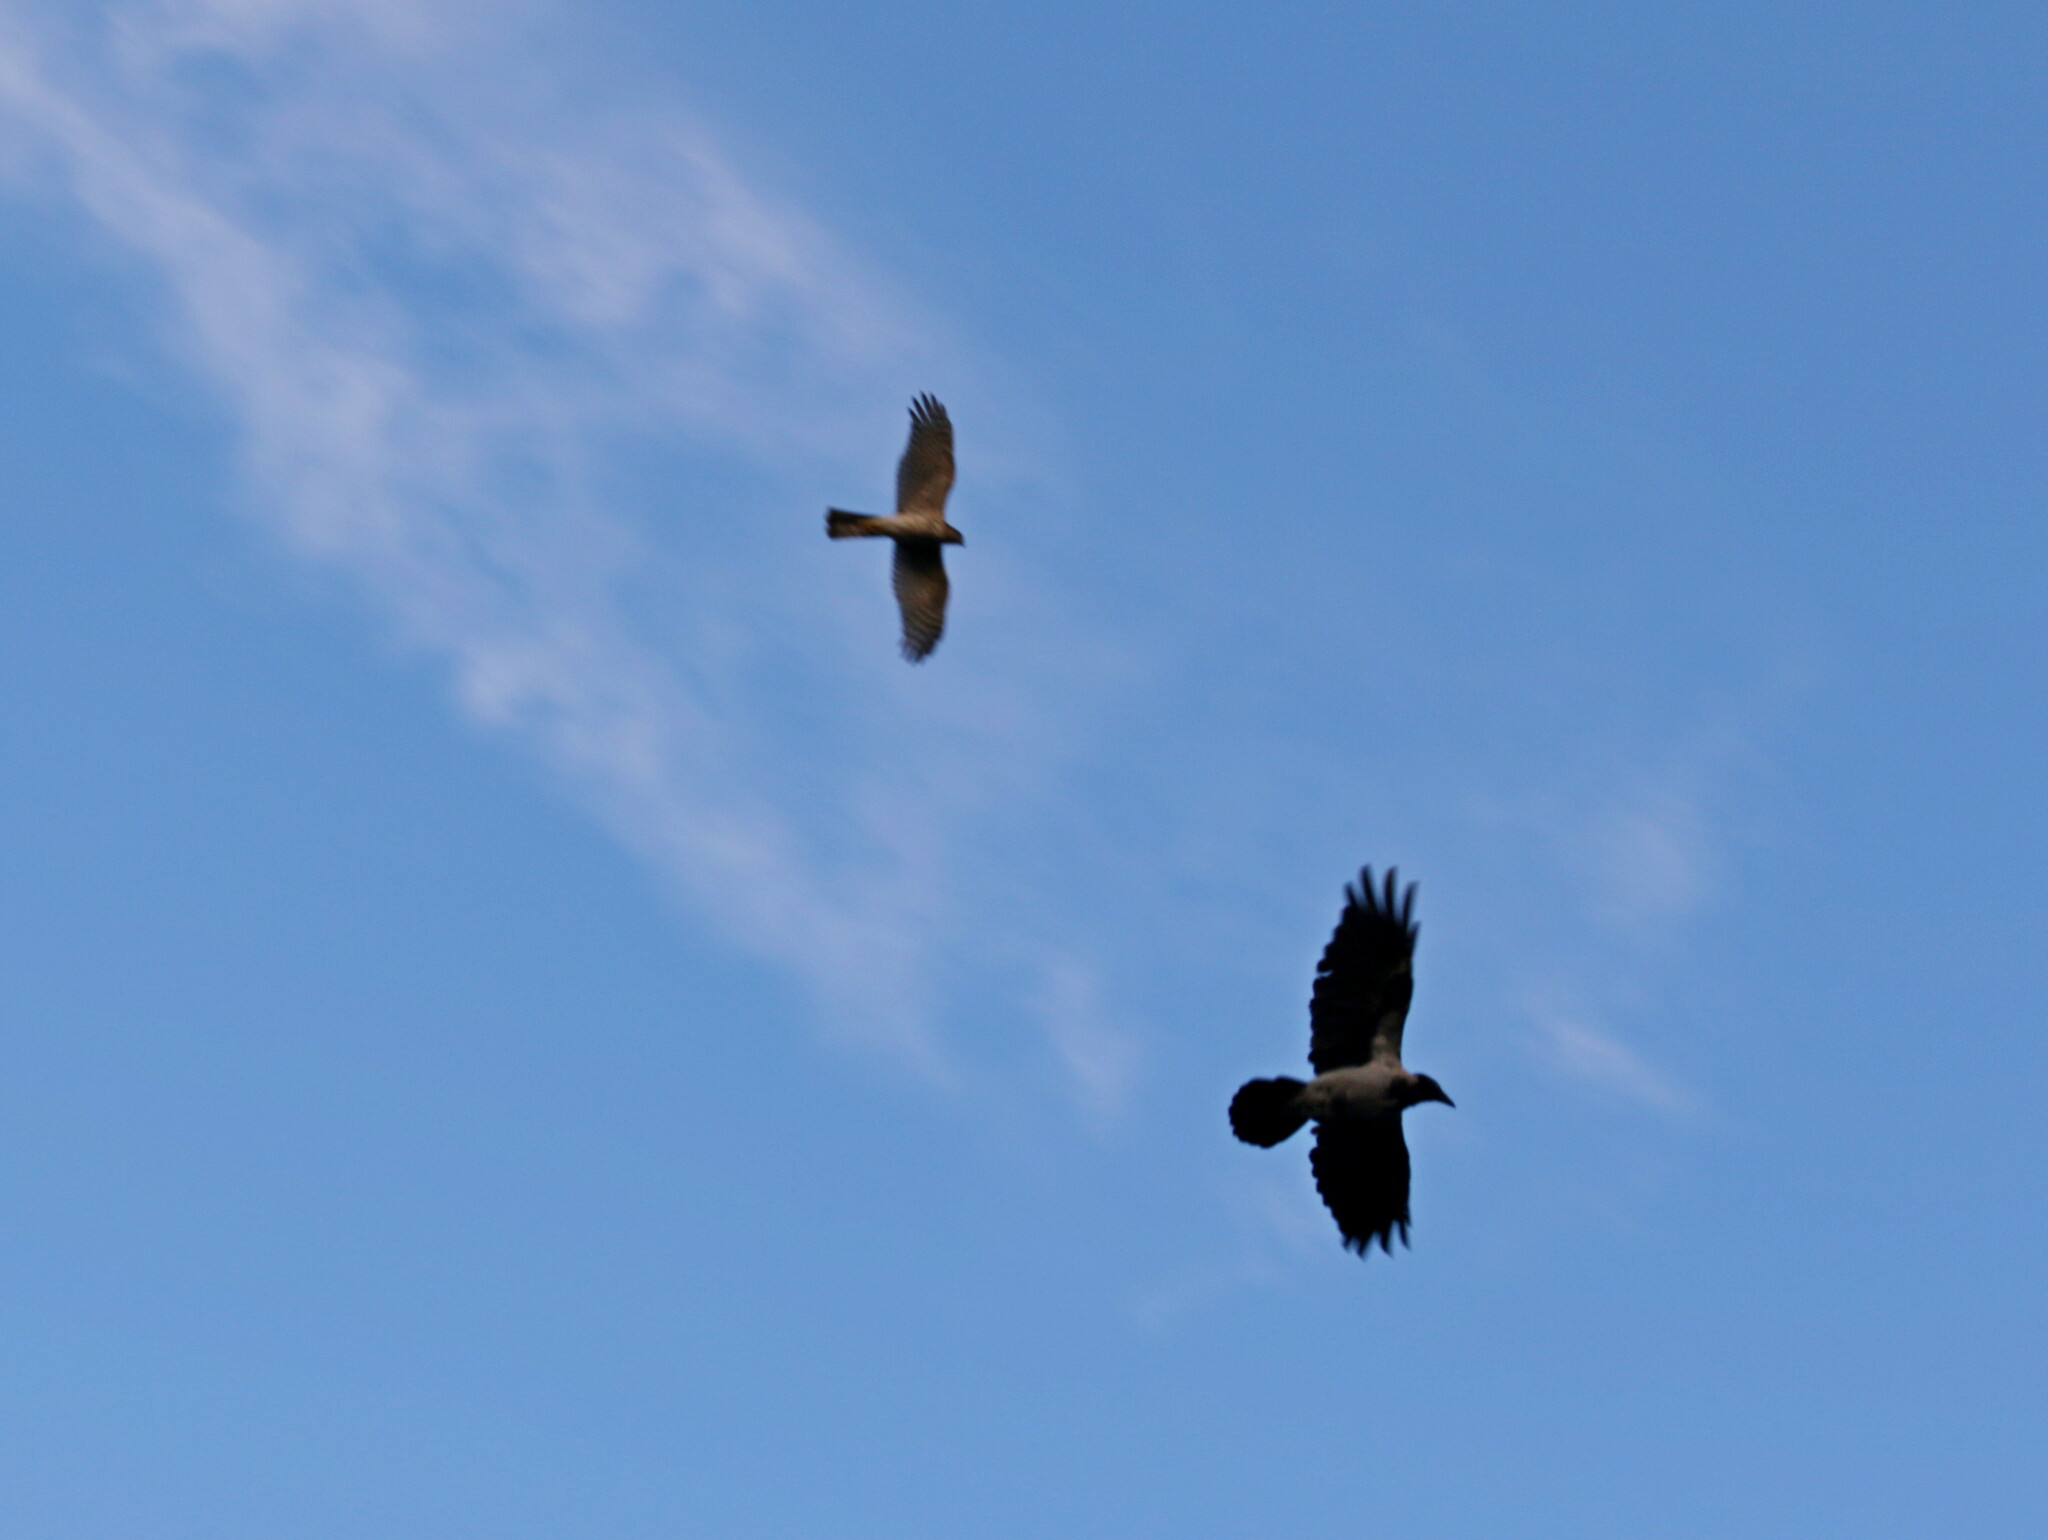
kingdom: Animalia
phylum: Chordata
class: Aves
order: Passeriformes
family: Corvidae
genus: Corvus
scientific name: Corvus cornix
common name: Hooded crow
